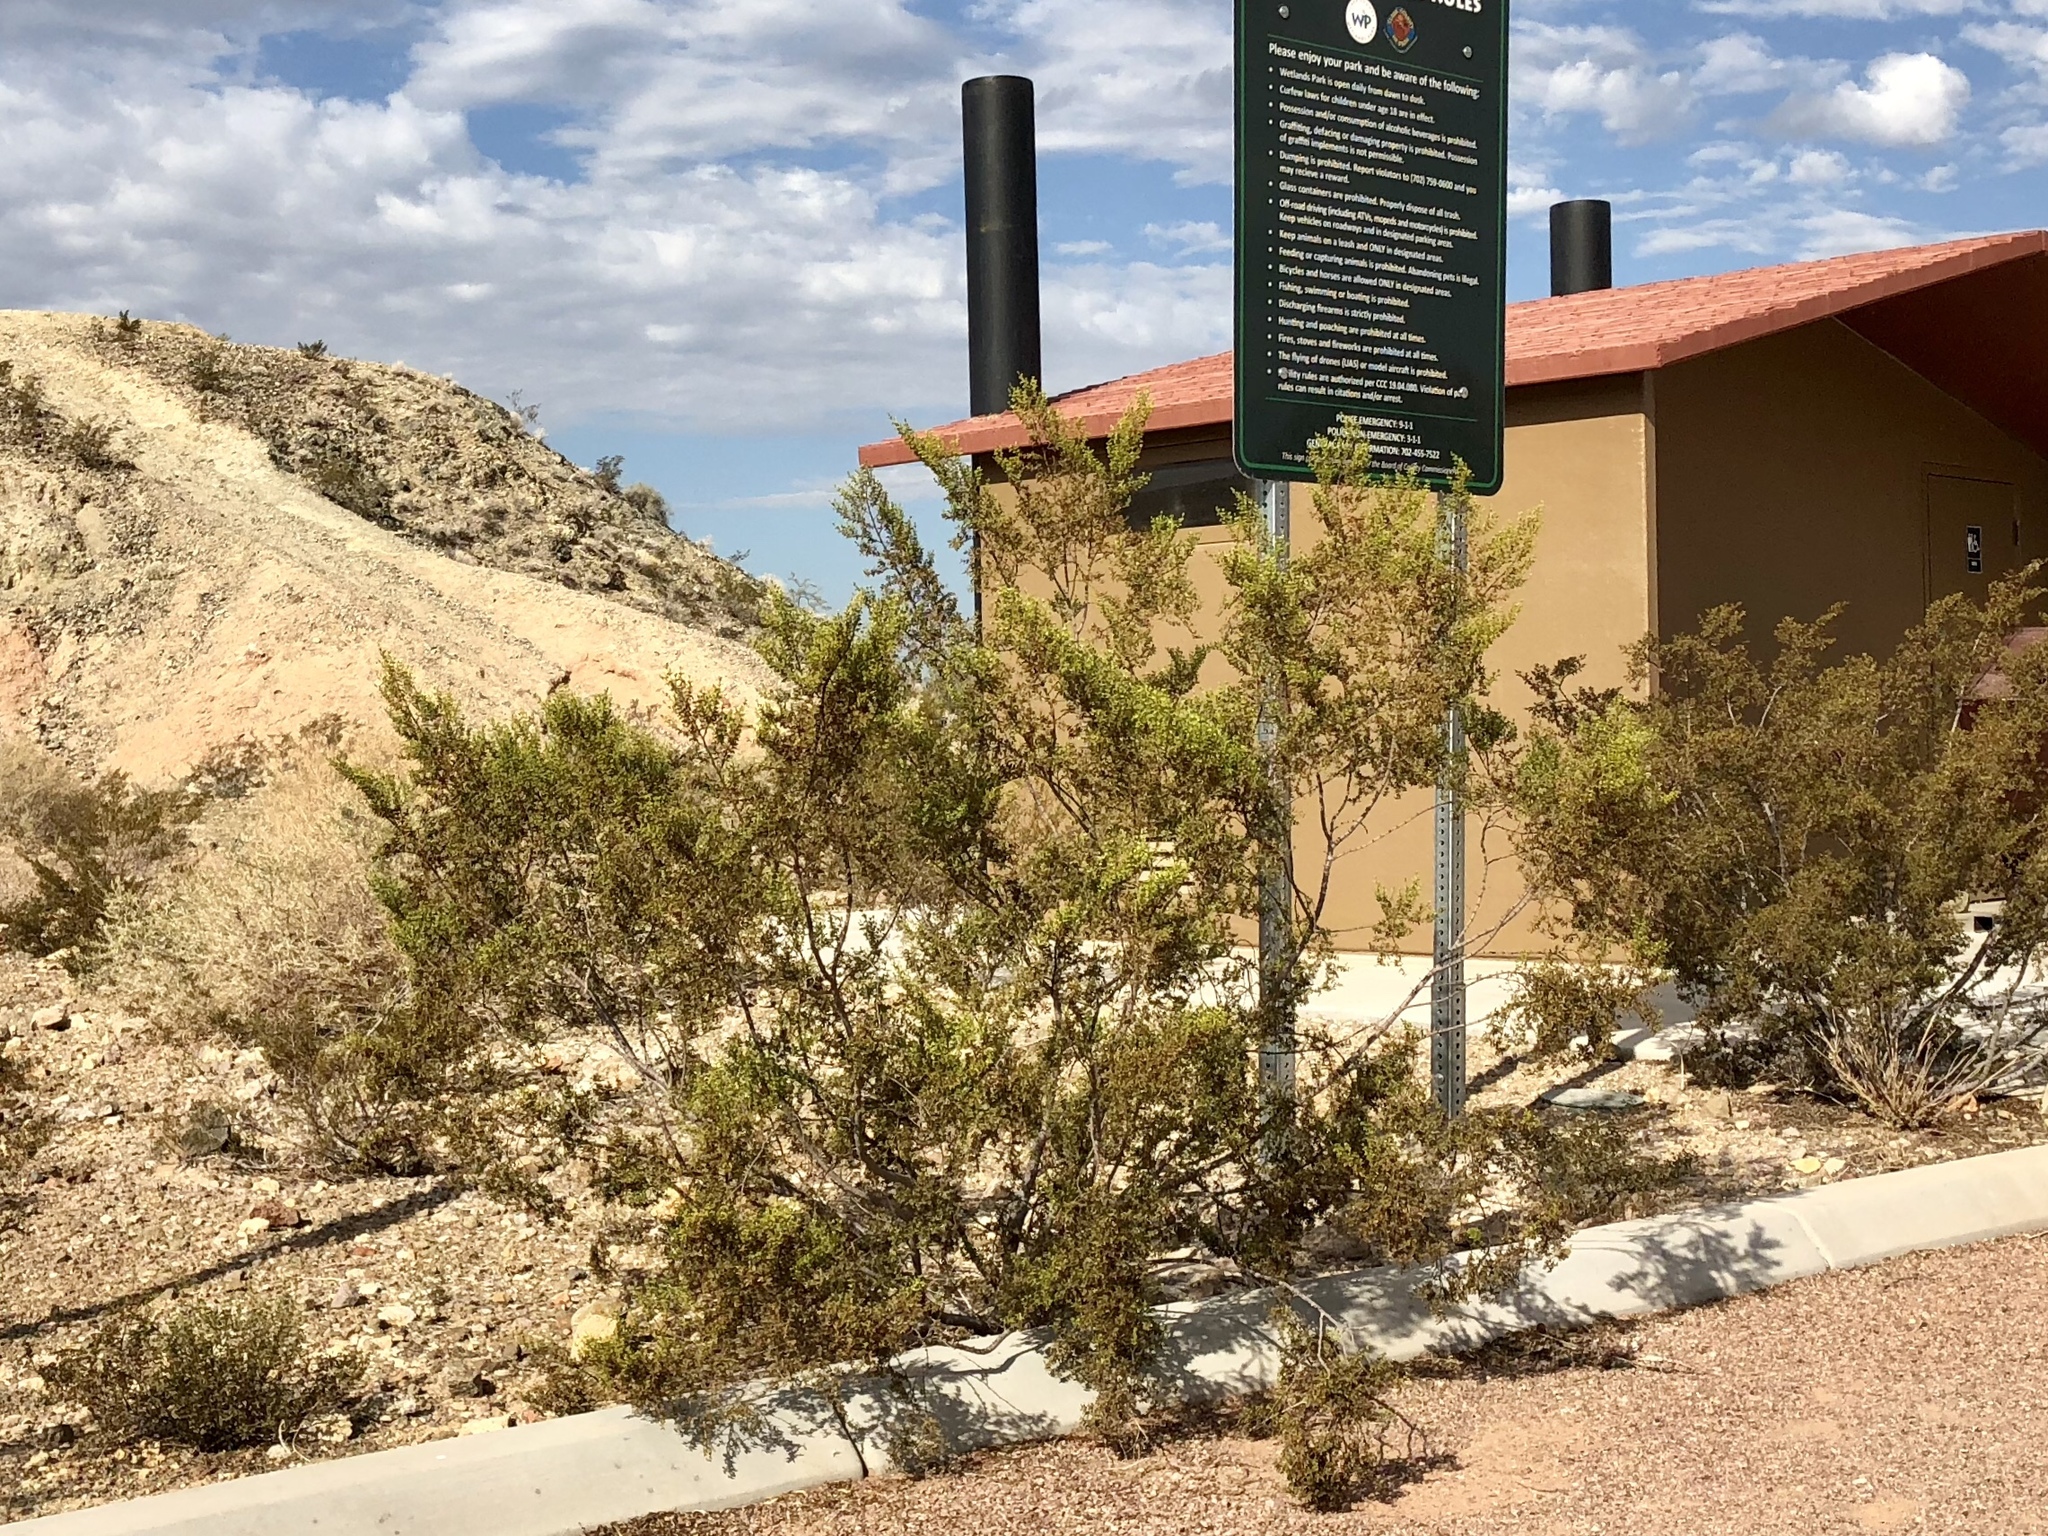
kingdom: Plantae
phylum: Tracheophyta
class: Magnoliopsida
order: Zygophyllales
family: Zygophyllaceae
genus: Larrea
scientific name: Larrea tridentata
